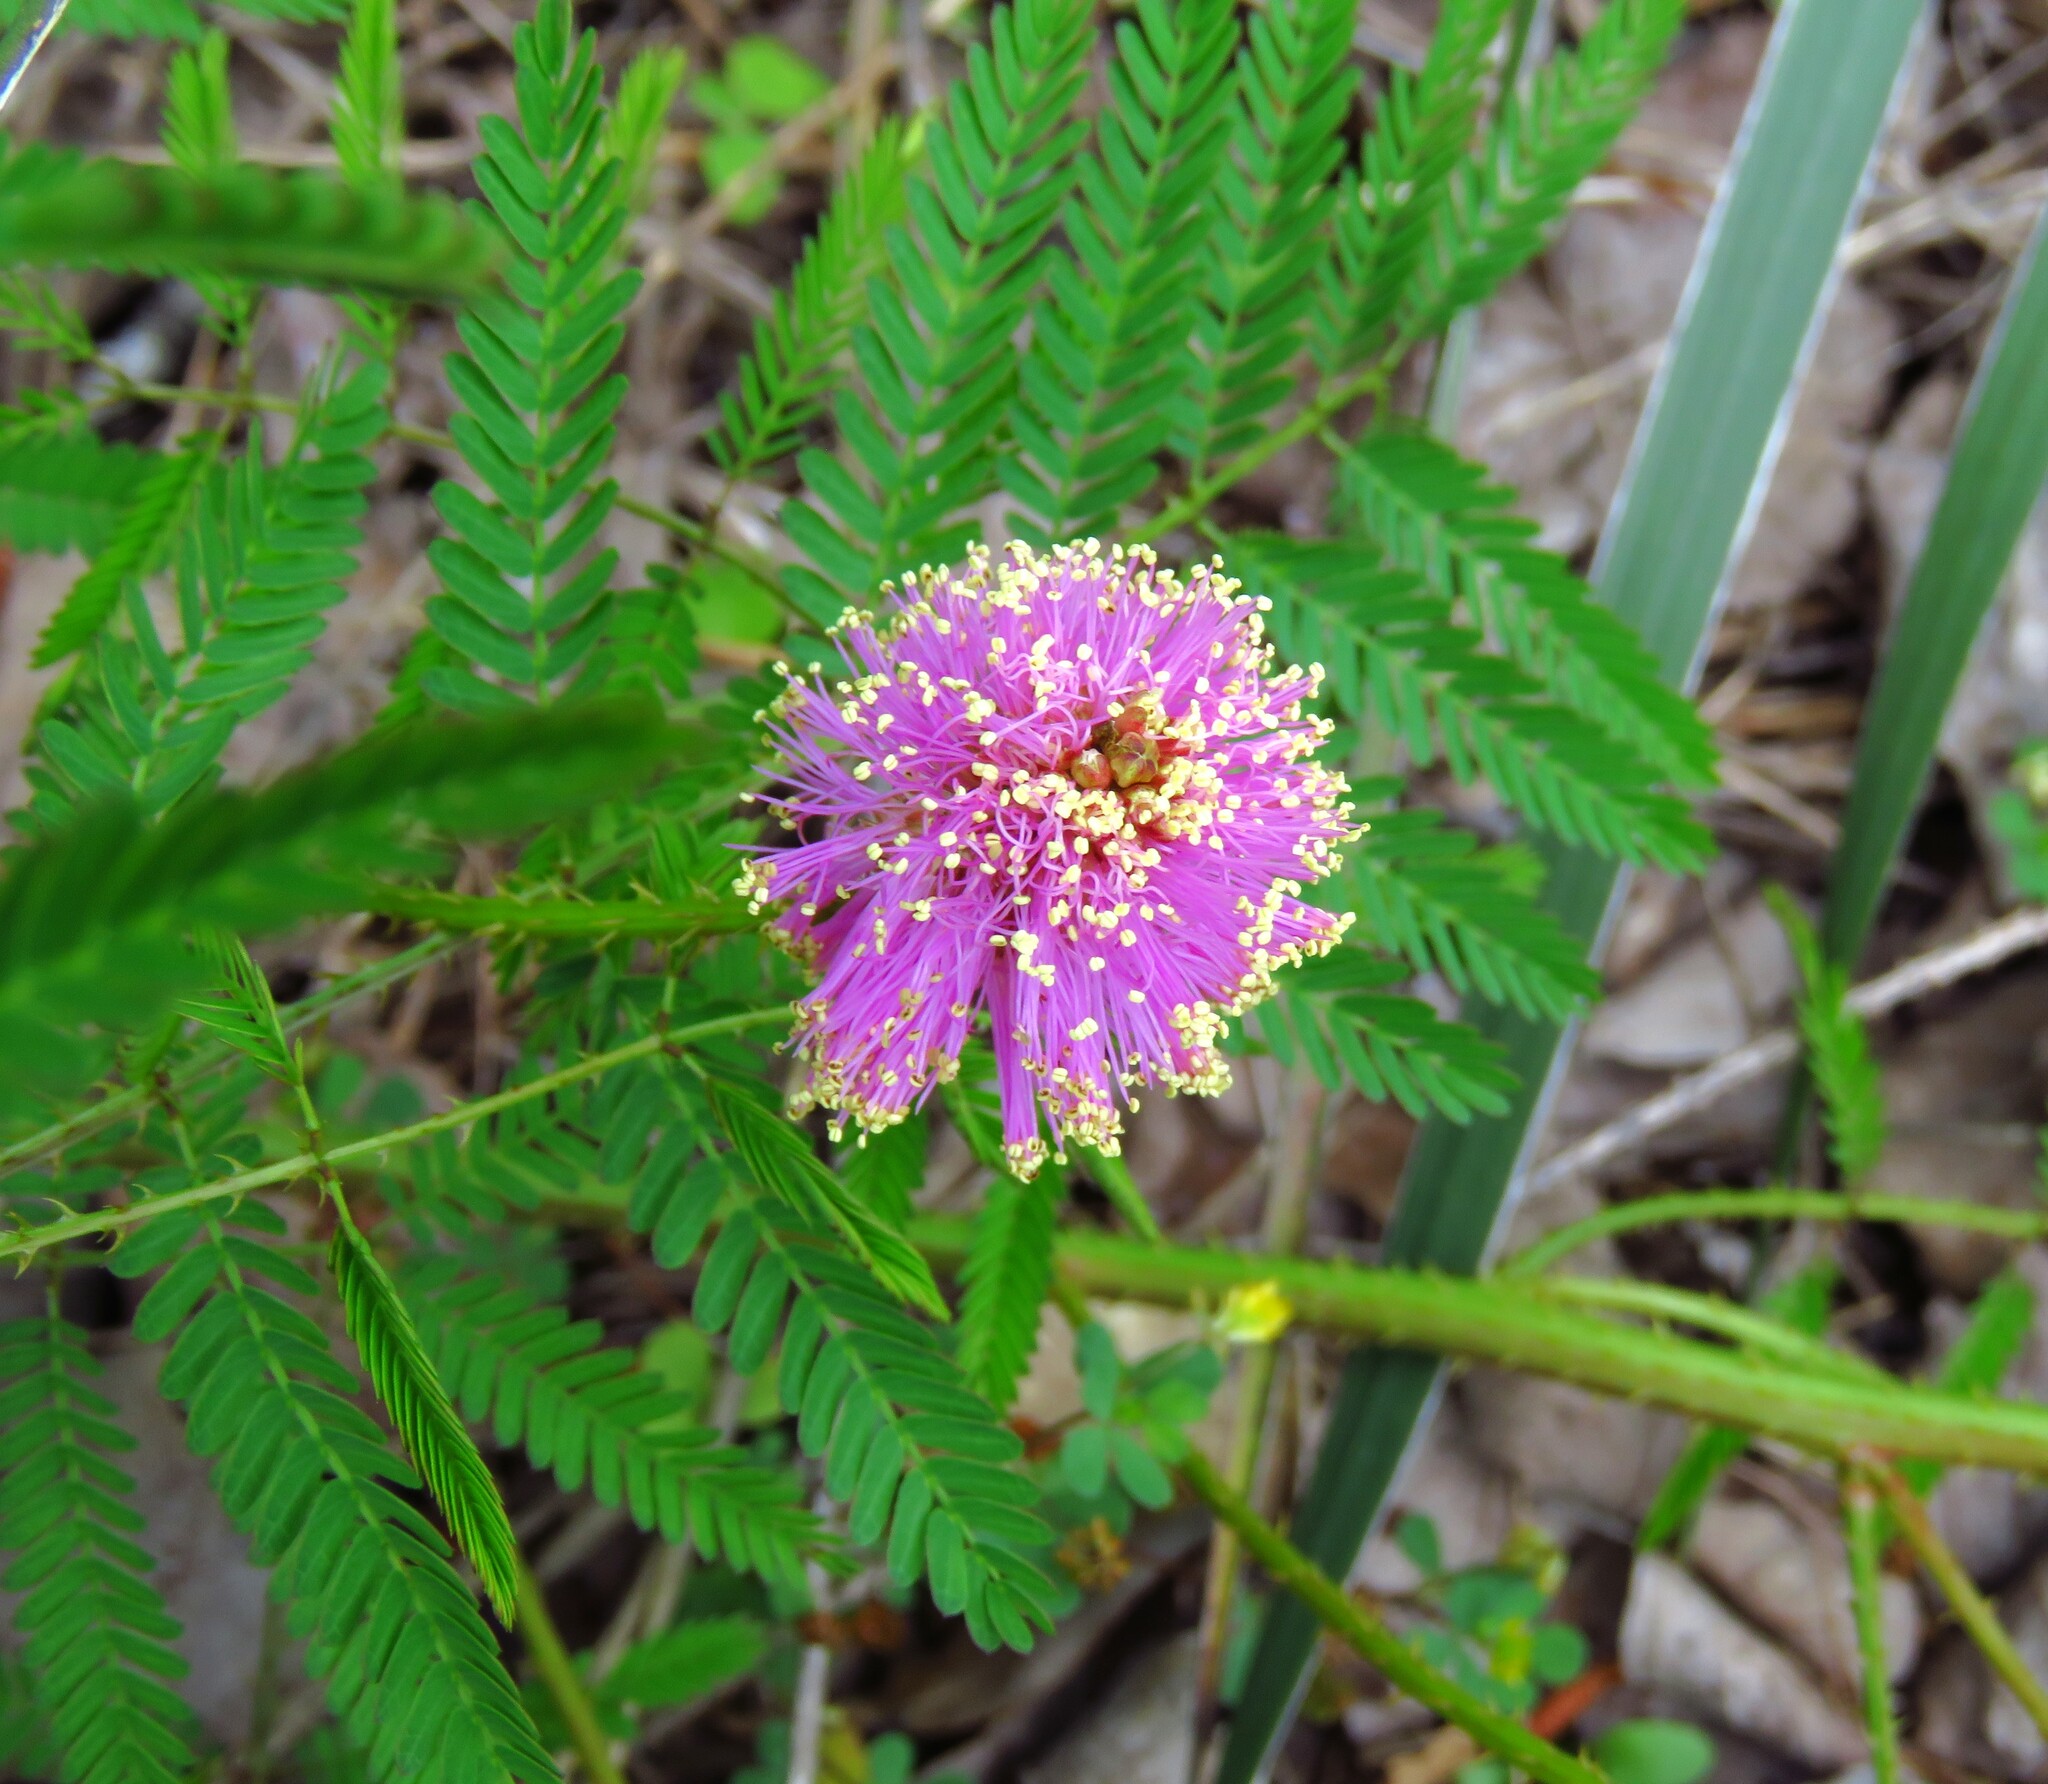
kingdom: Plantae
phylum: Tracheophyta
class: Magnoliopsida
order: Fabales
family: Fabaceae
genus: Mimosa
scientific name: Mimosa quadrivalvis
